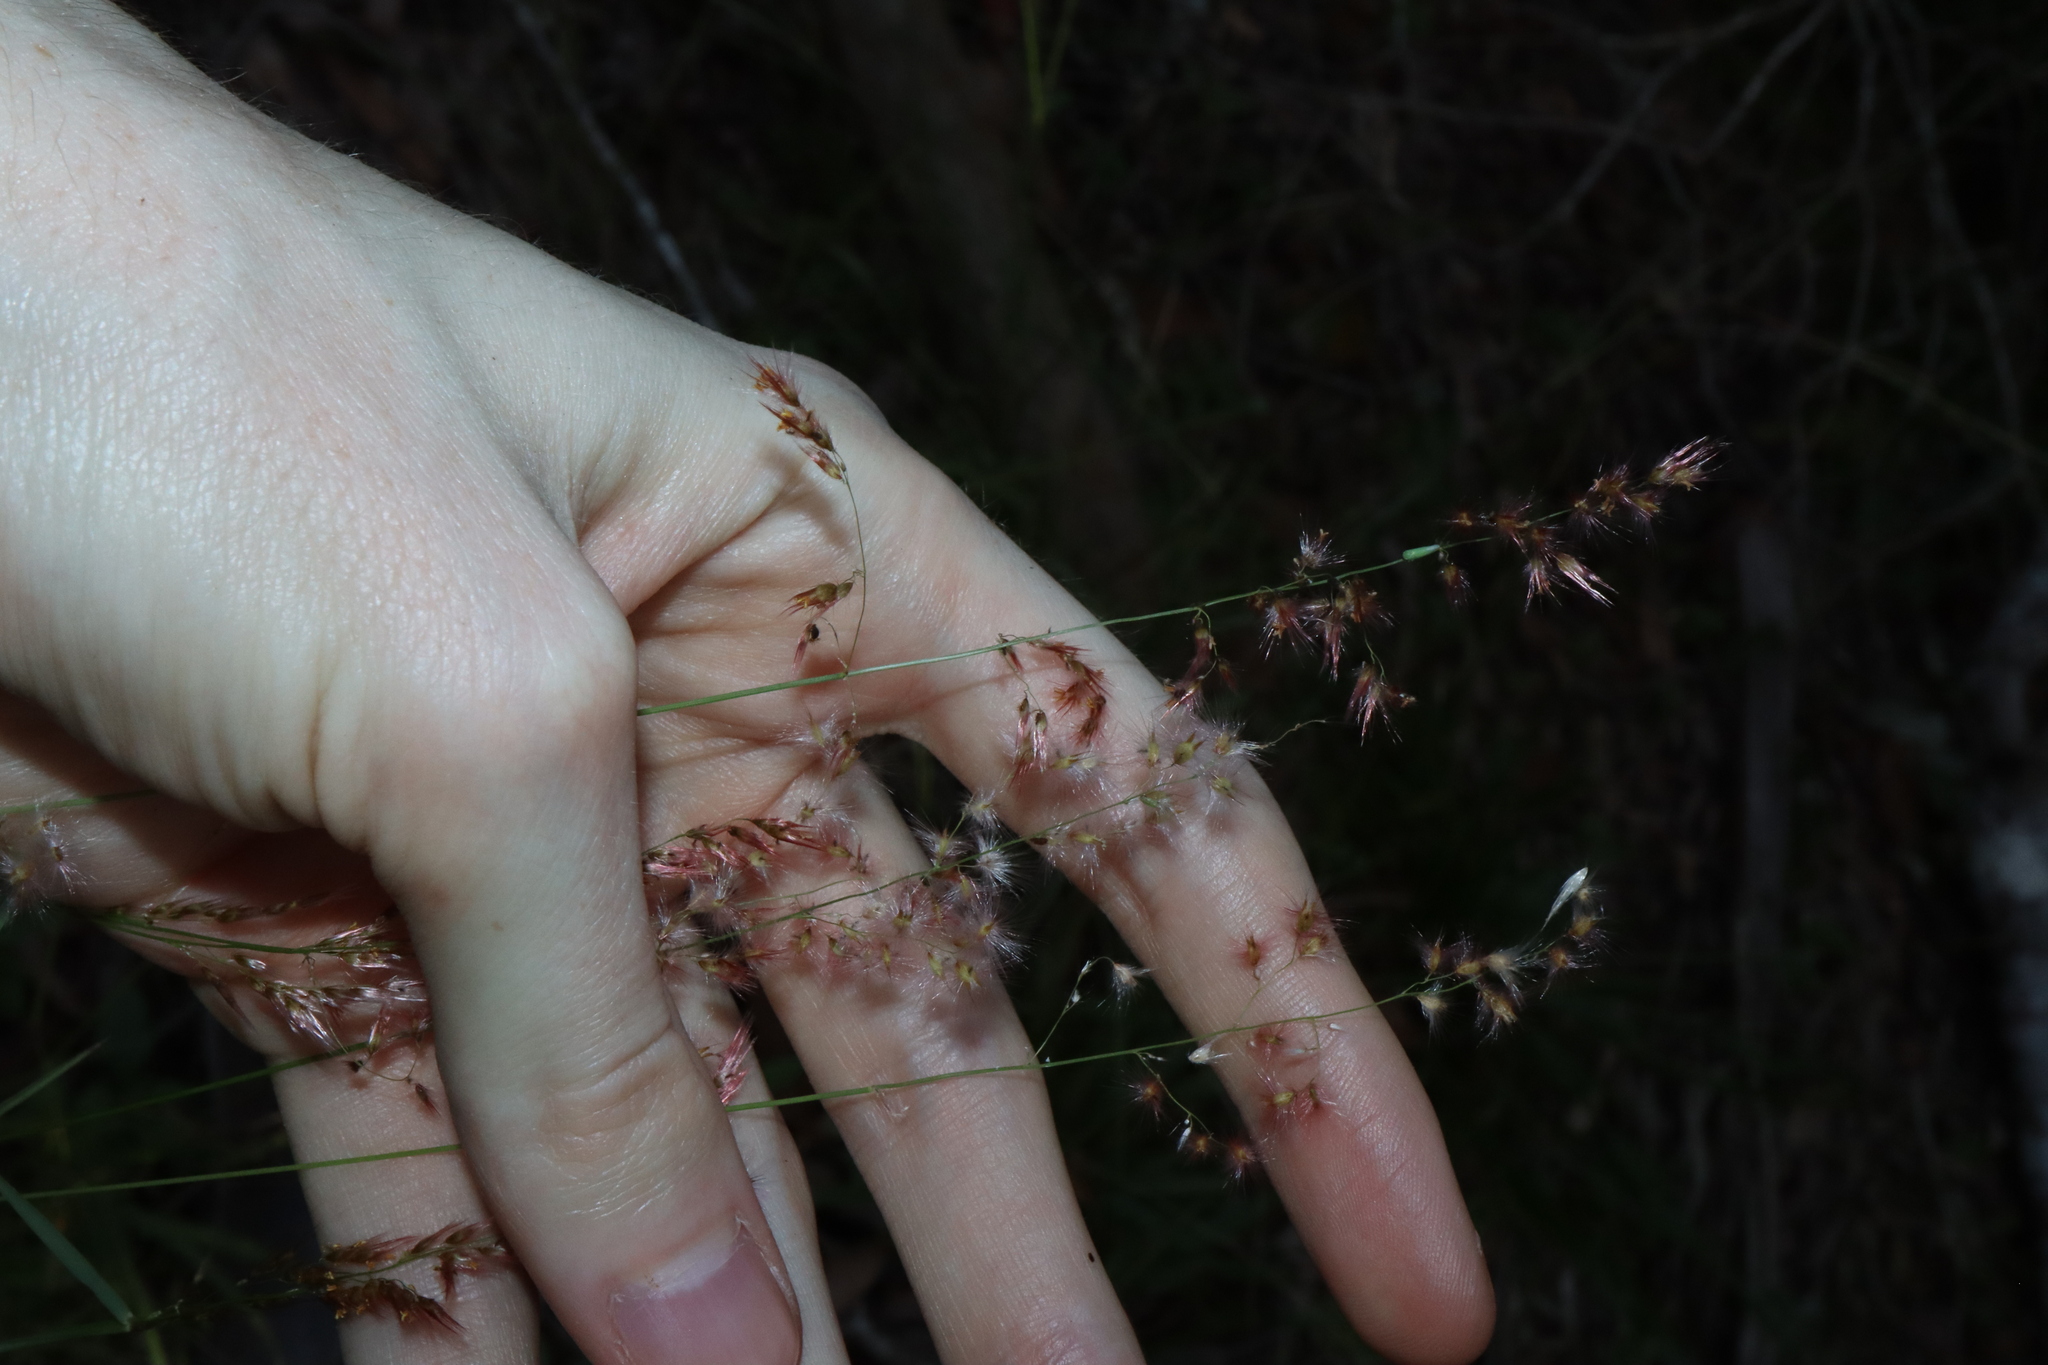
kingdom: Plantae
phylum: Tracheophyta
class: Liliopsida
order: Poales
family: Poaceae
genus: Melinis
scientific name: Melinis repens
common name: Rose natal grass
